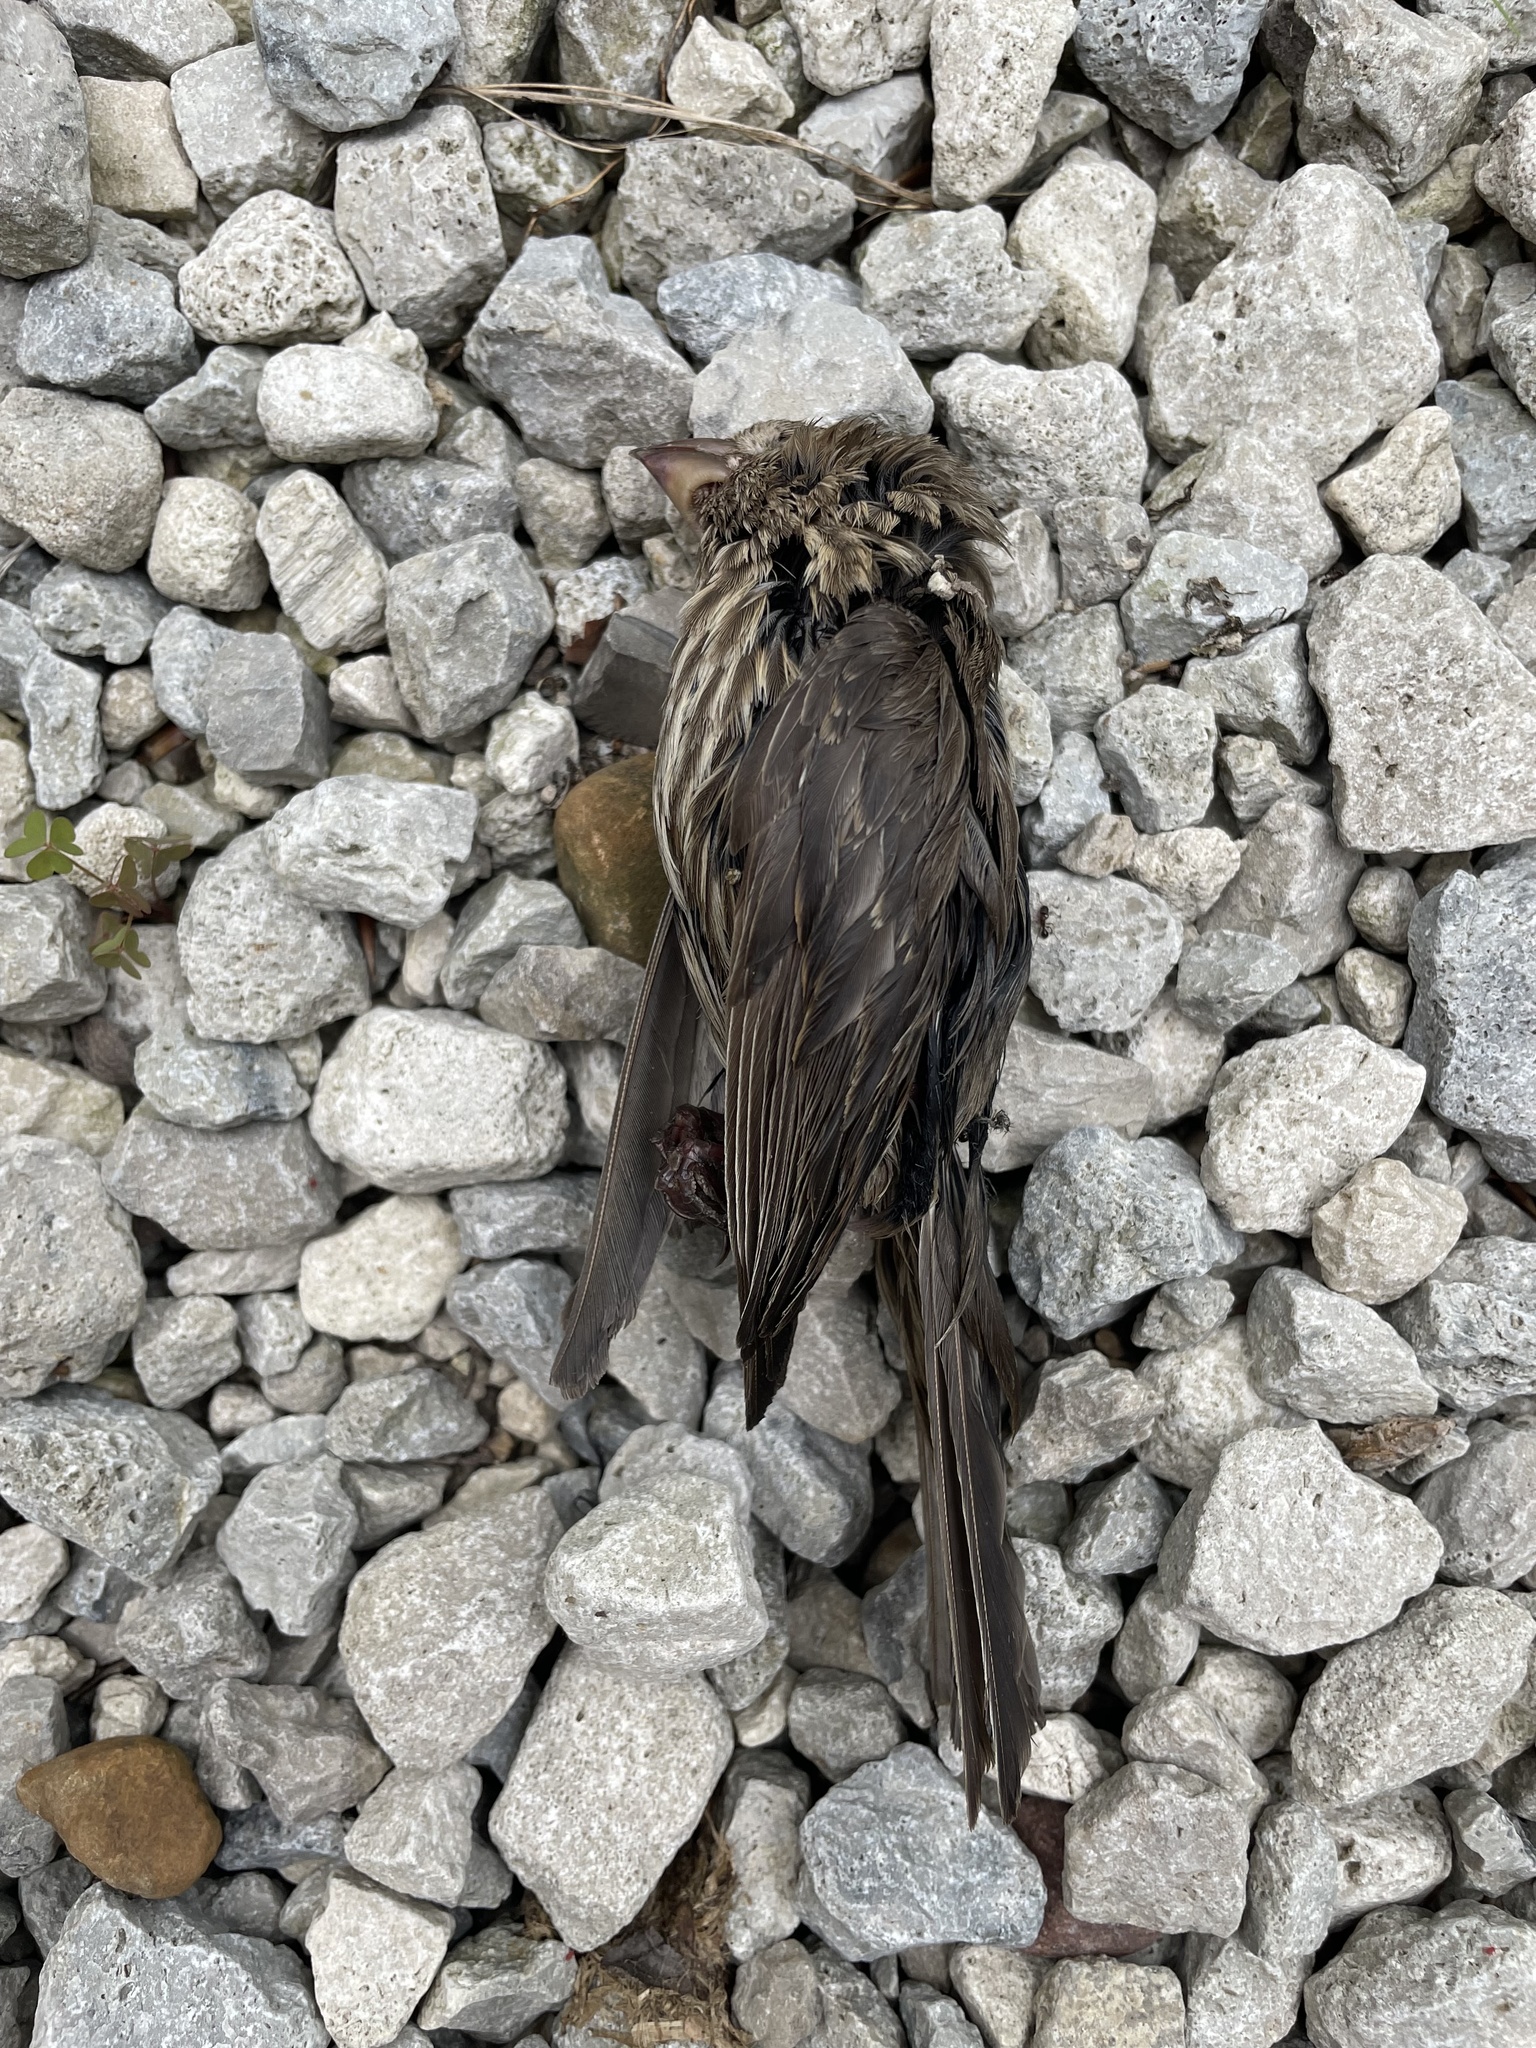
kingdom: Animalia
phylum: Chordata
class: Aves
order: Passeriformes
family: Fringillidae
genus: Haemorhous
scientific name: Haemorhous mexicanus
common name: House finch
